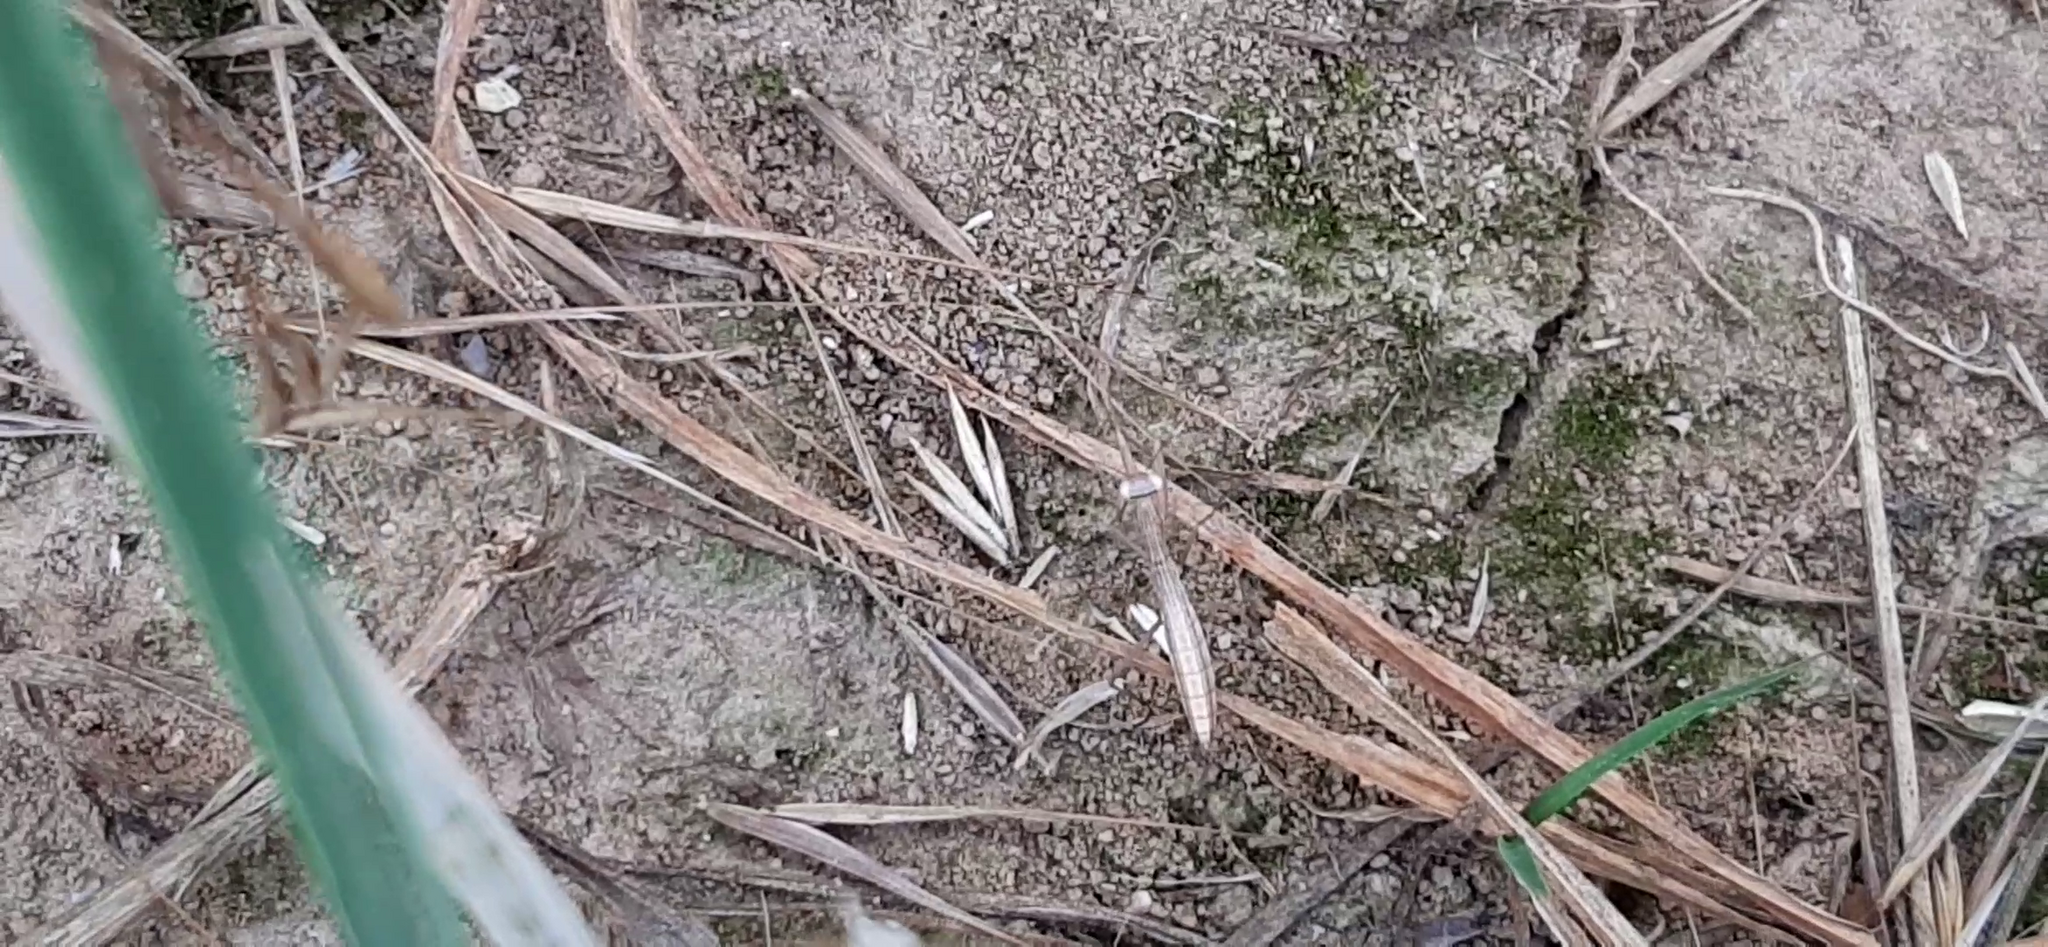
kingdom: Animalia
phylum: Arthropoda
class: Insecta
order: Mantodea
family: Mantidae
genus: Mantis
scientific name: Mantis religiosa
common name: Praying mantis
